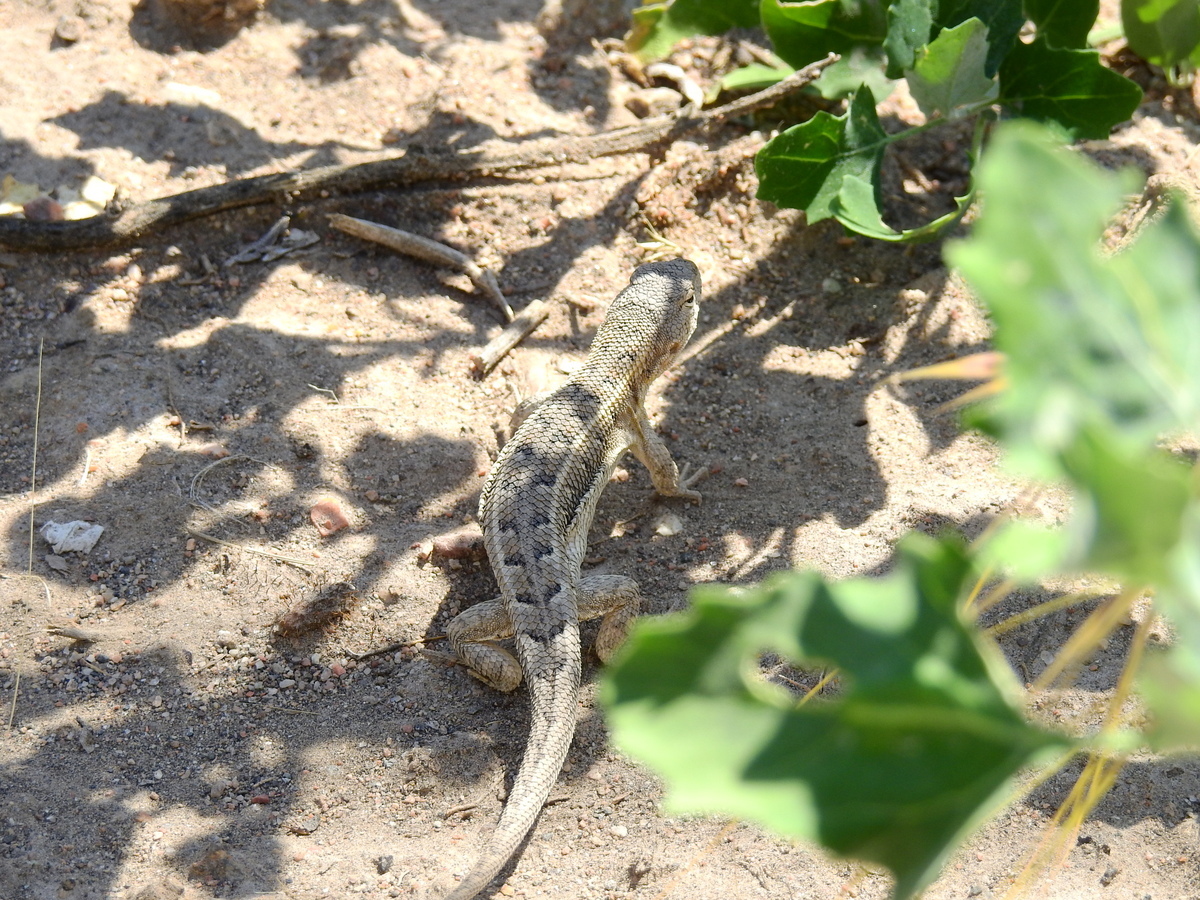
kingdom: Animalia
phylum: Chordata
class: Squamata
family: Liolaemidae
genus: Liolaemus
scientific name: Liolaemus darwinii
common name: Darwin's tree iguana
